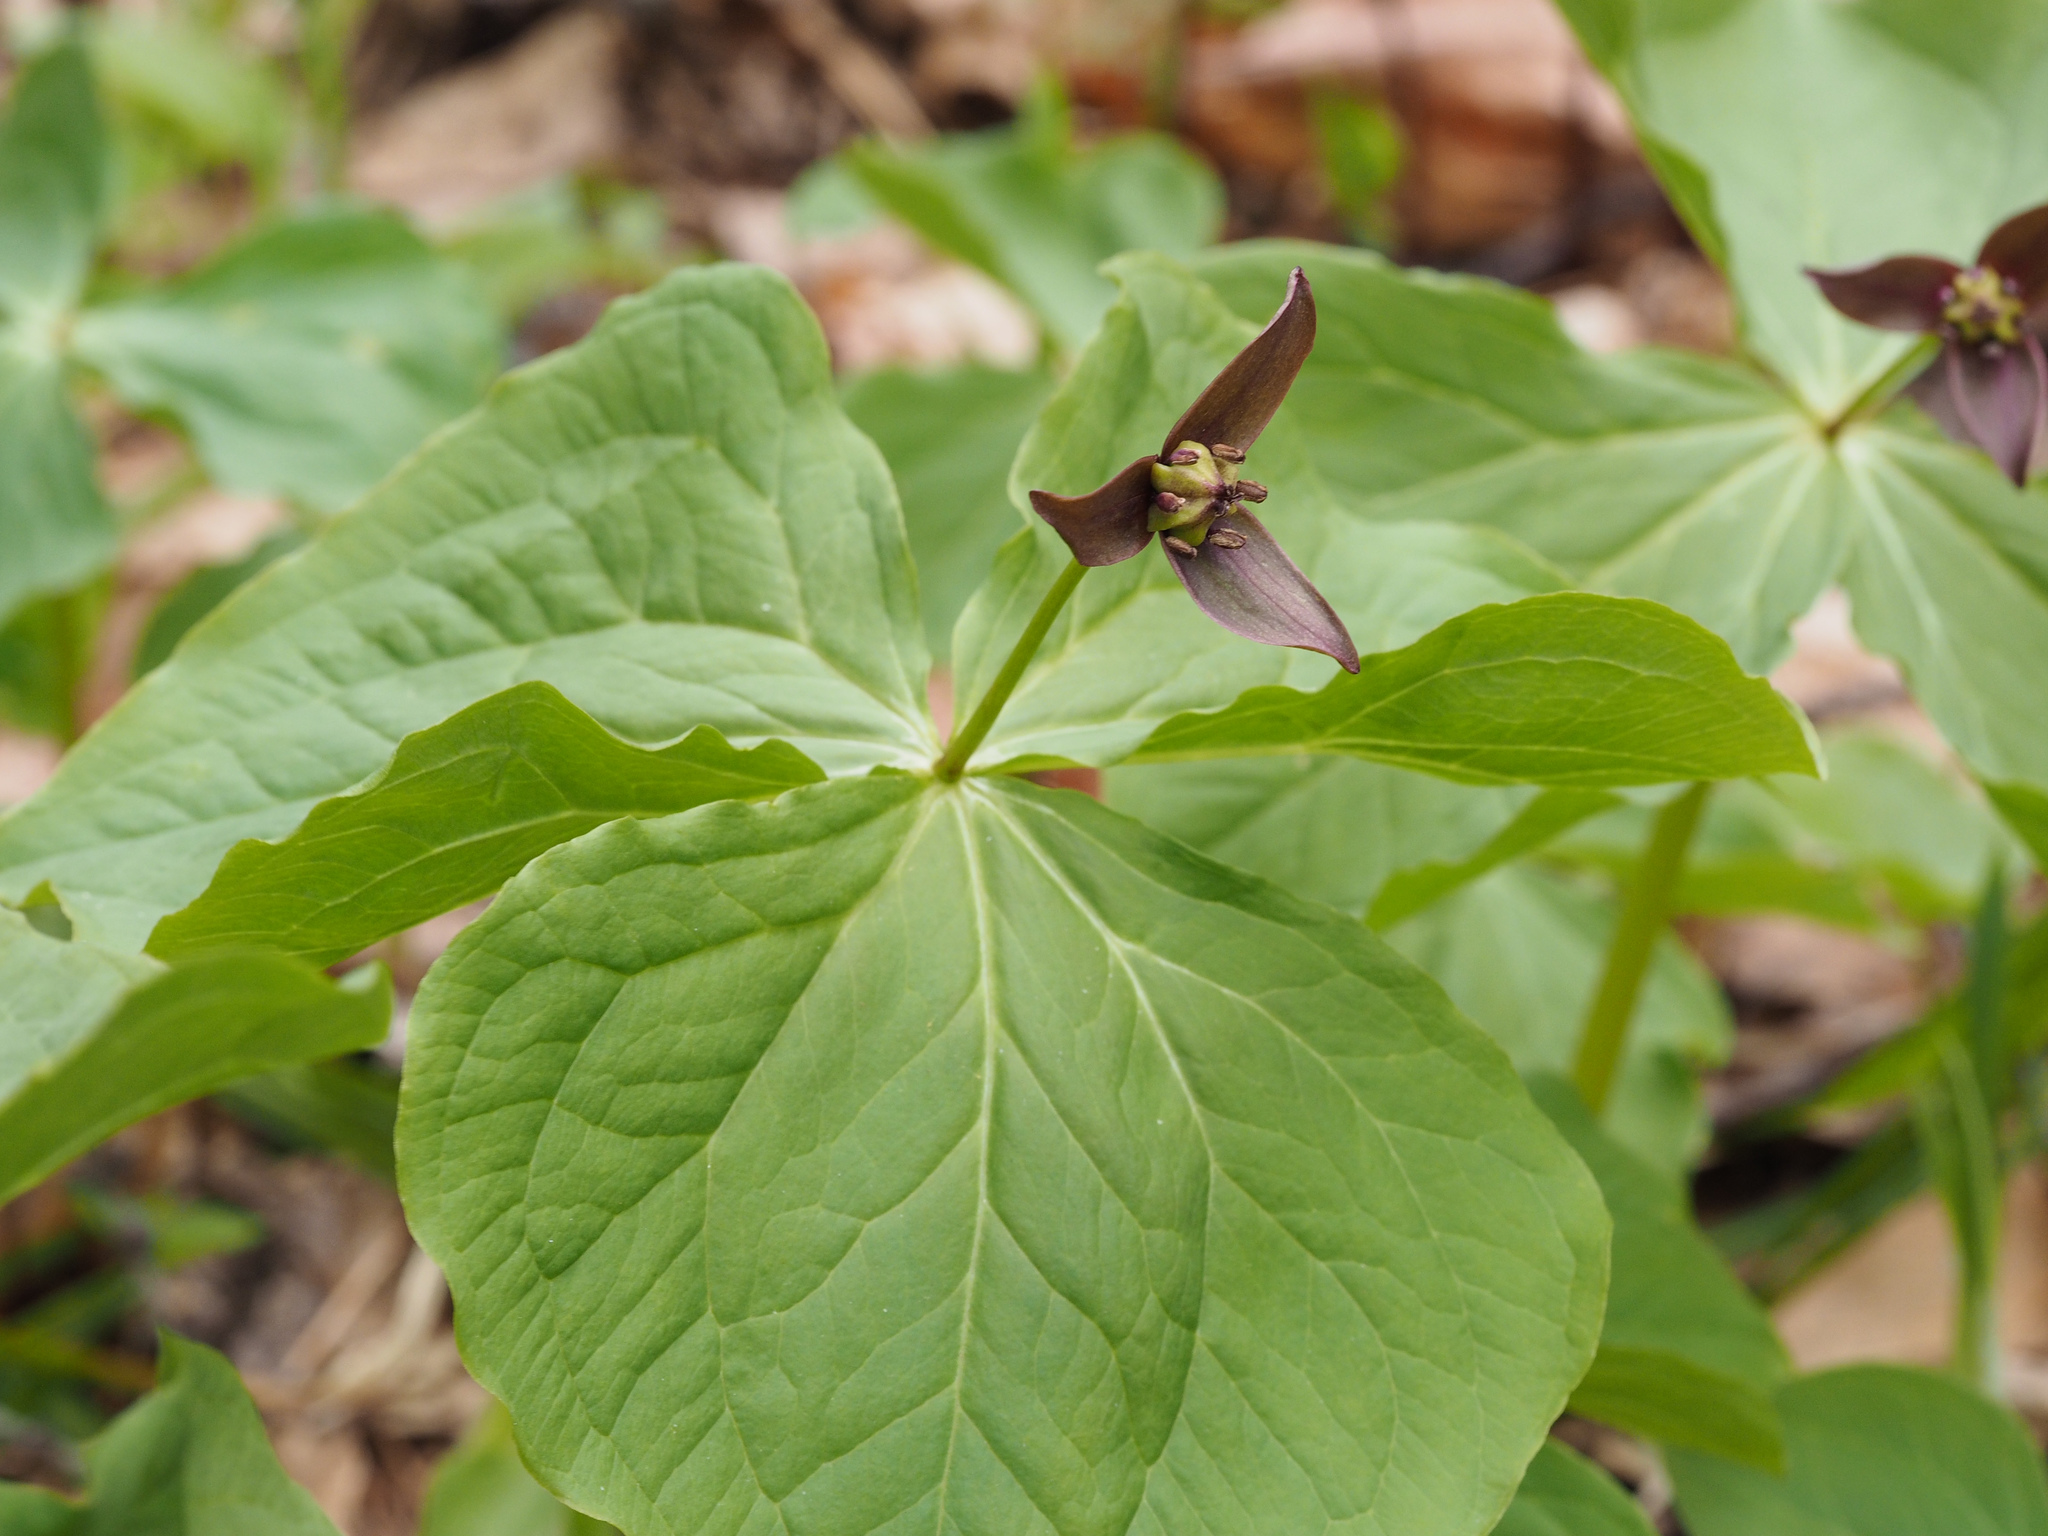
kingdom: Plantae
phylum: Tracheophyta
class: Liliopsida
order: Liliales
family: Melanthiaceae
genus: Trillium
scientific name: Trillium apetalon
